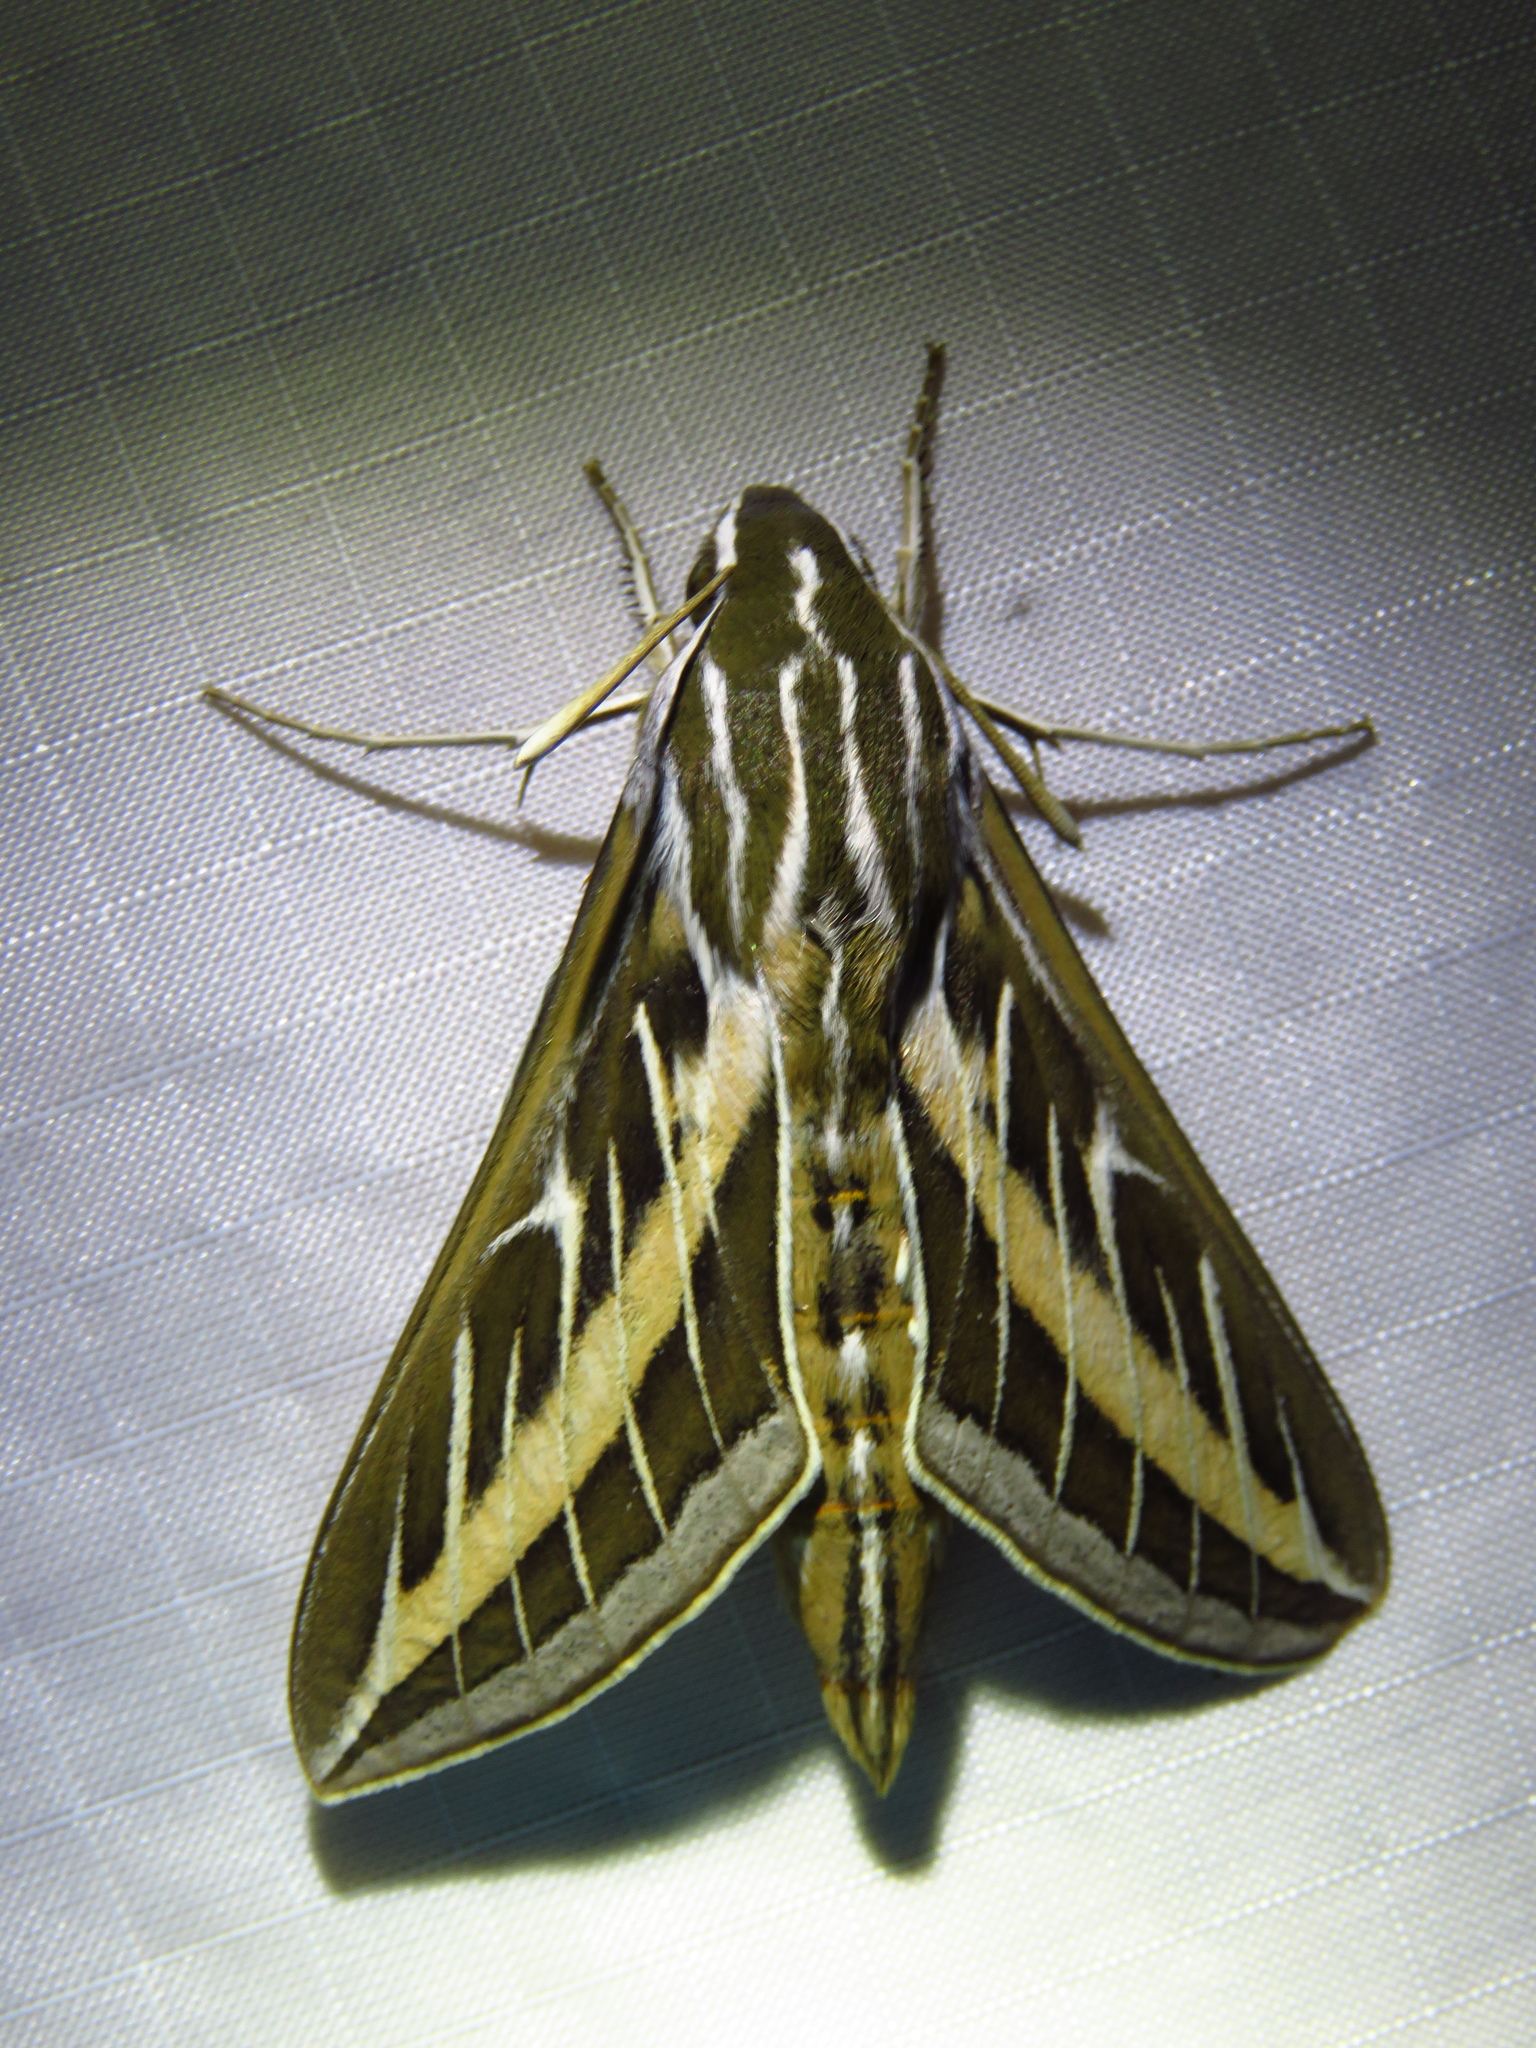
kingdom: Animalia
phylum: Arthropoda
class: Insecta
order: Lepidoptera
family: Sphingidae
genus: Hyles
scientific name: Hyles lineata
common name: White-lined sphinx
